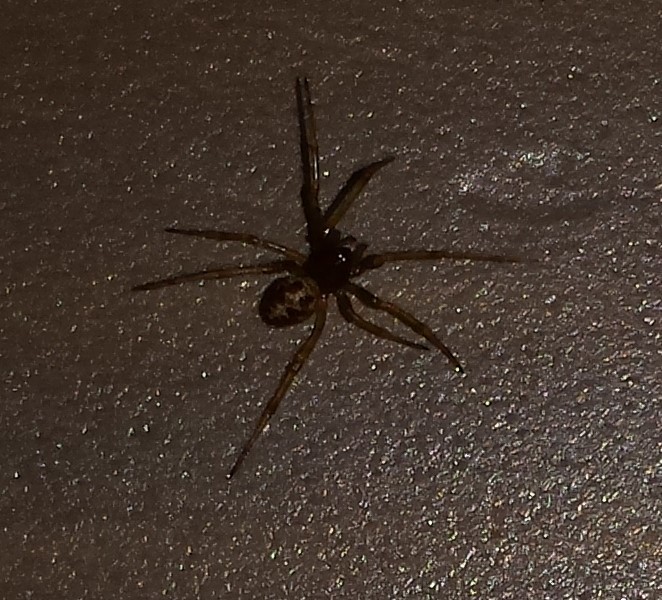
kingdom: Animalia
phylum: Arthropoda
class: Arachnida
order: Araneae
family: Theridiidae
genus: Steatoda
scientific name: Steatoda triangulosa
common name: Triangulate bud spider
